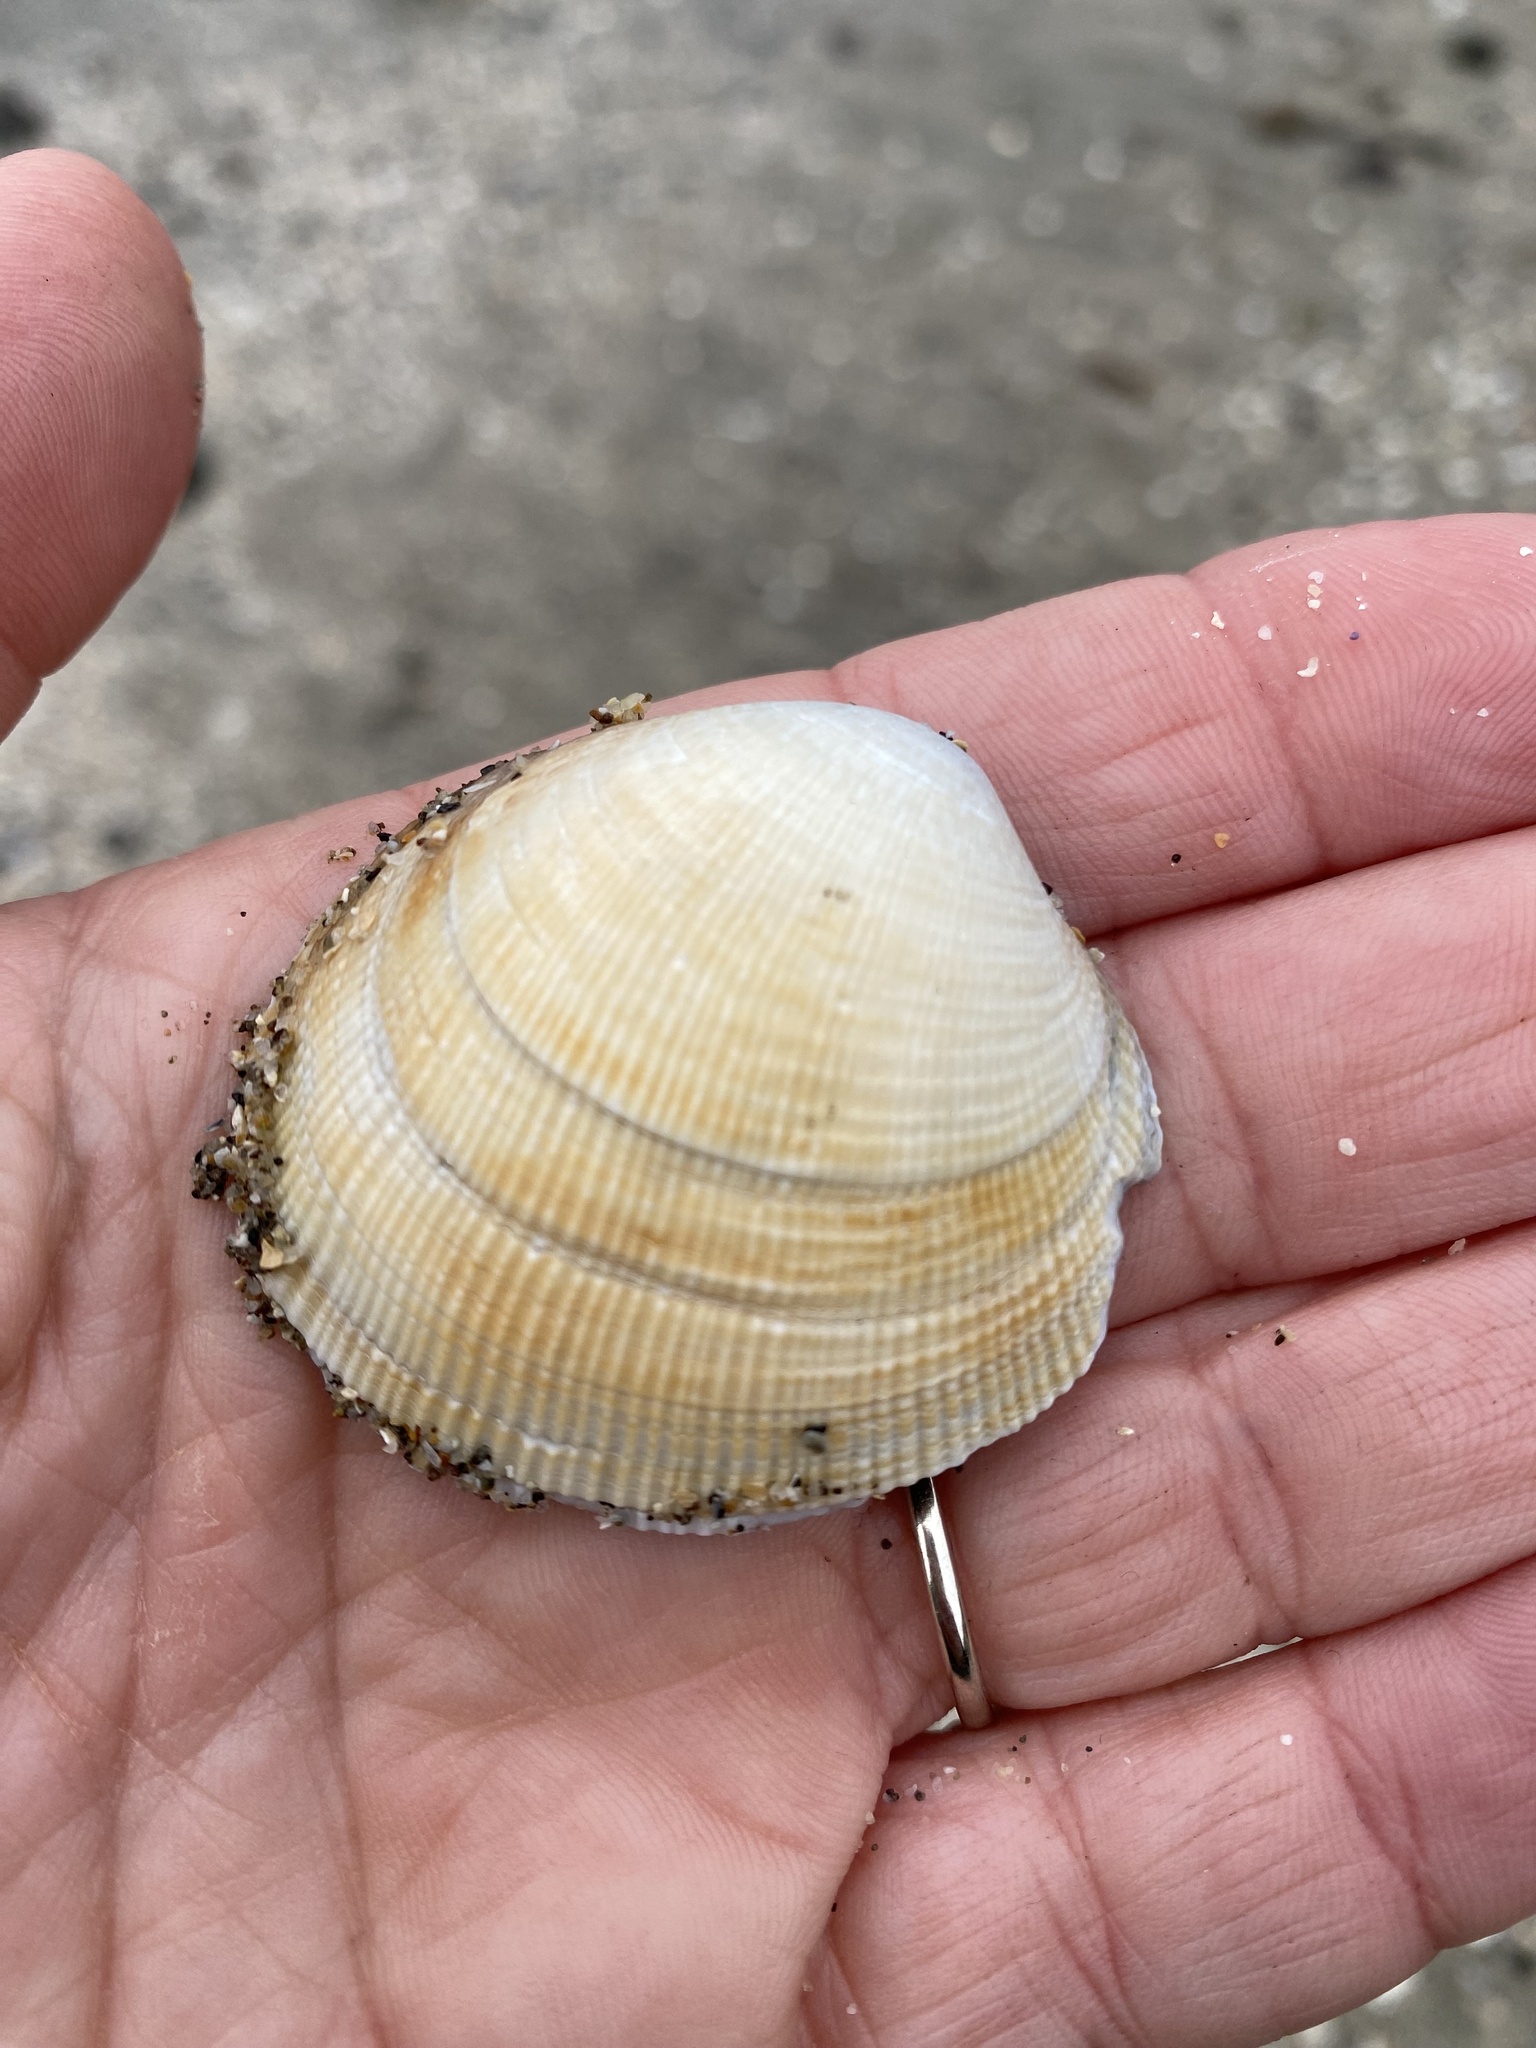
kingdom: Animalia
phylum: Mollusca
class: Bivalvia
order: Venerida
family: Veneridae
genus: Leukoma
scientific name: Leukoma staminea
